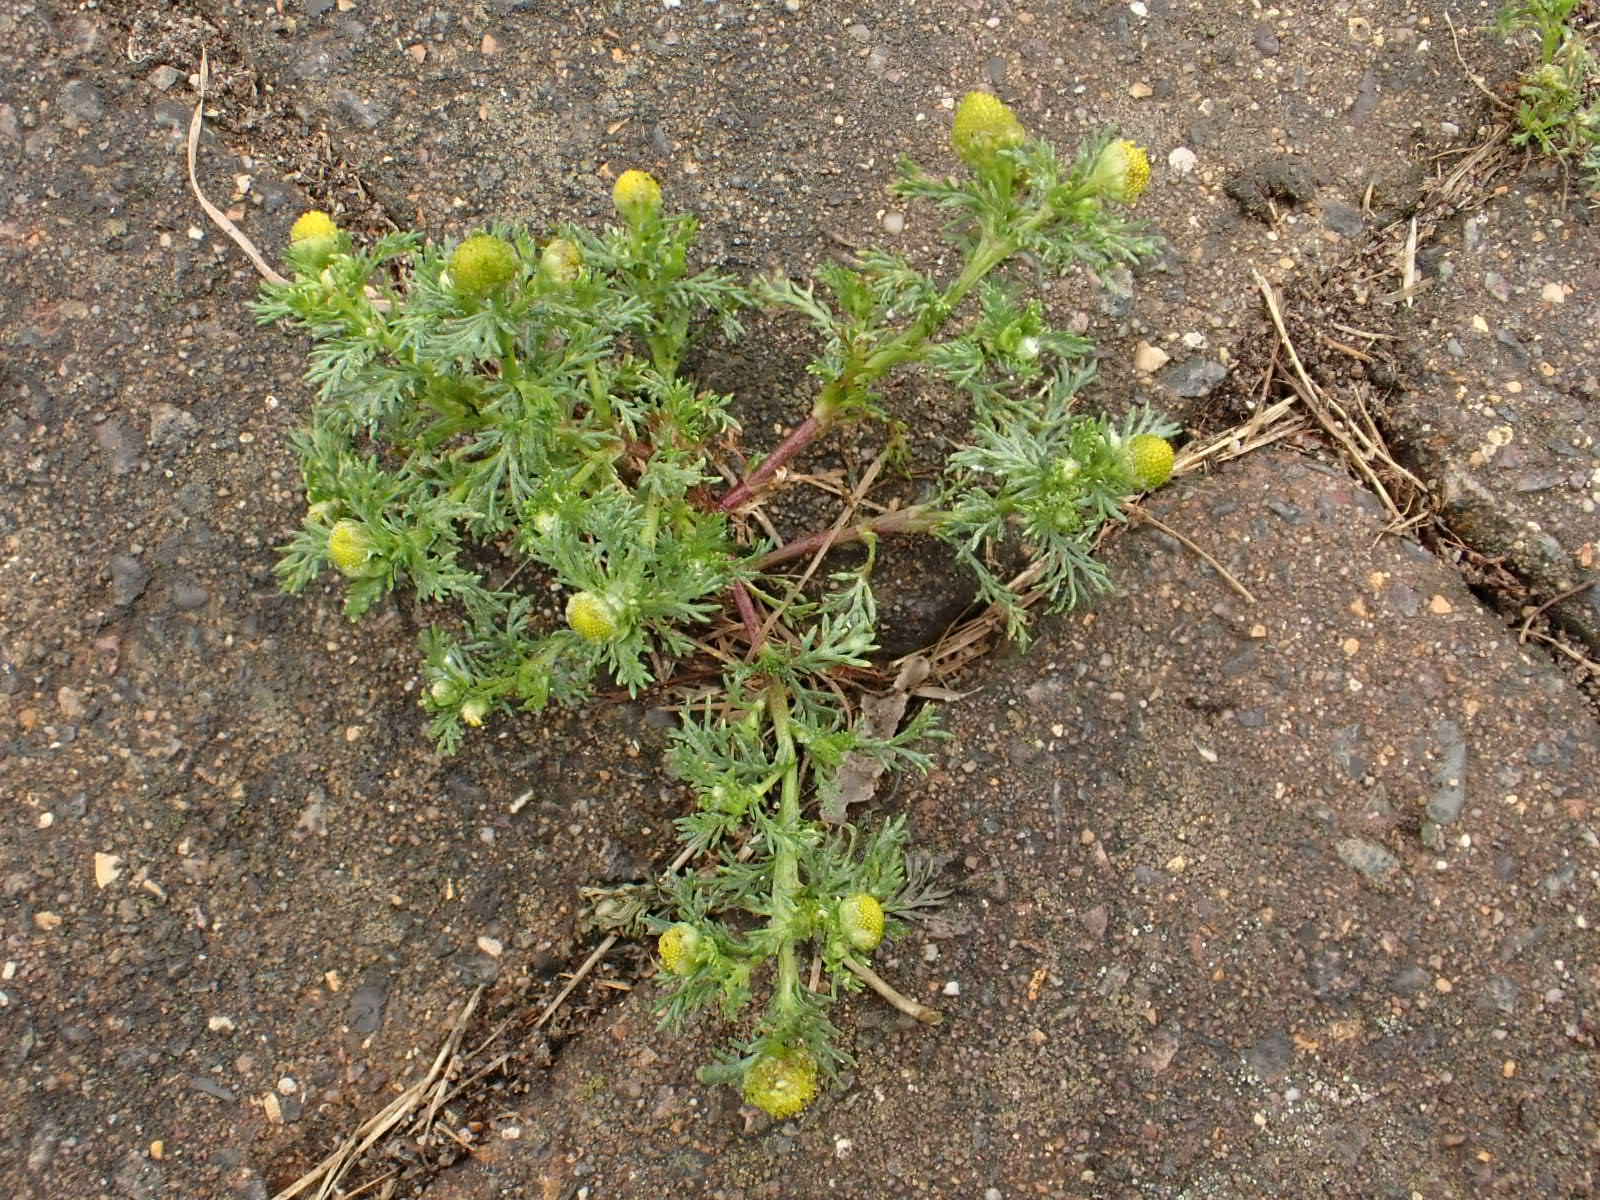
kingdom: Plantae
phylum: Tracheophyta
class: Magnoliopsida
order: Asterales
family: Asteraceae
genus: Matricaria
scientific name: Matricaria discoidea
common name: Disc mayweed
